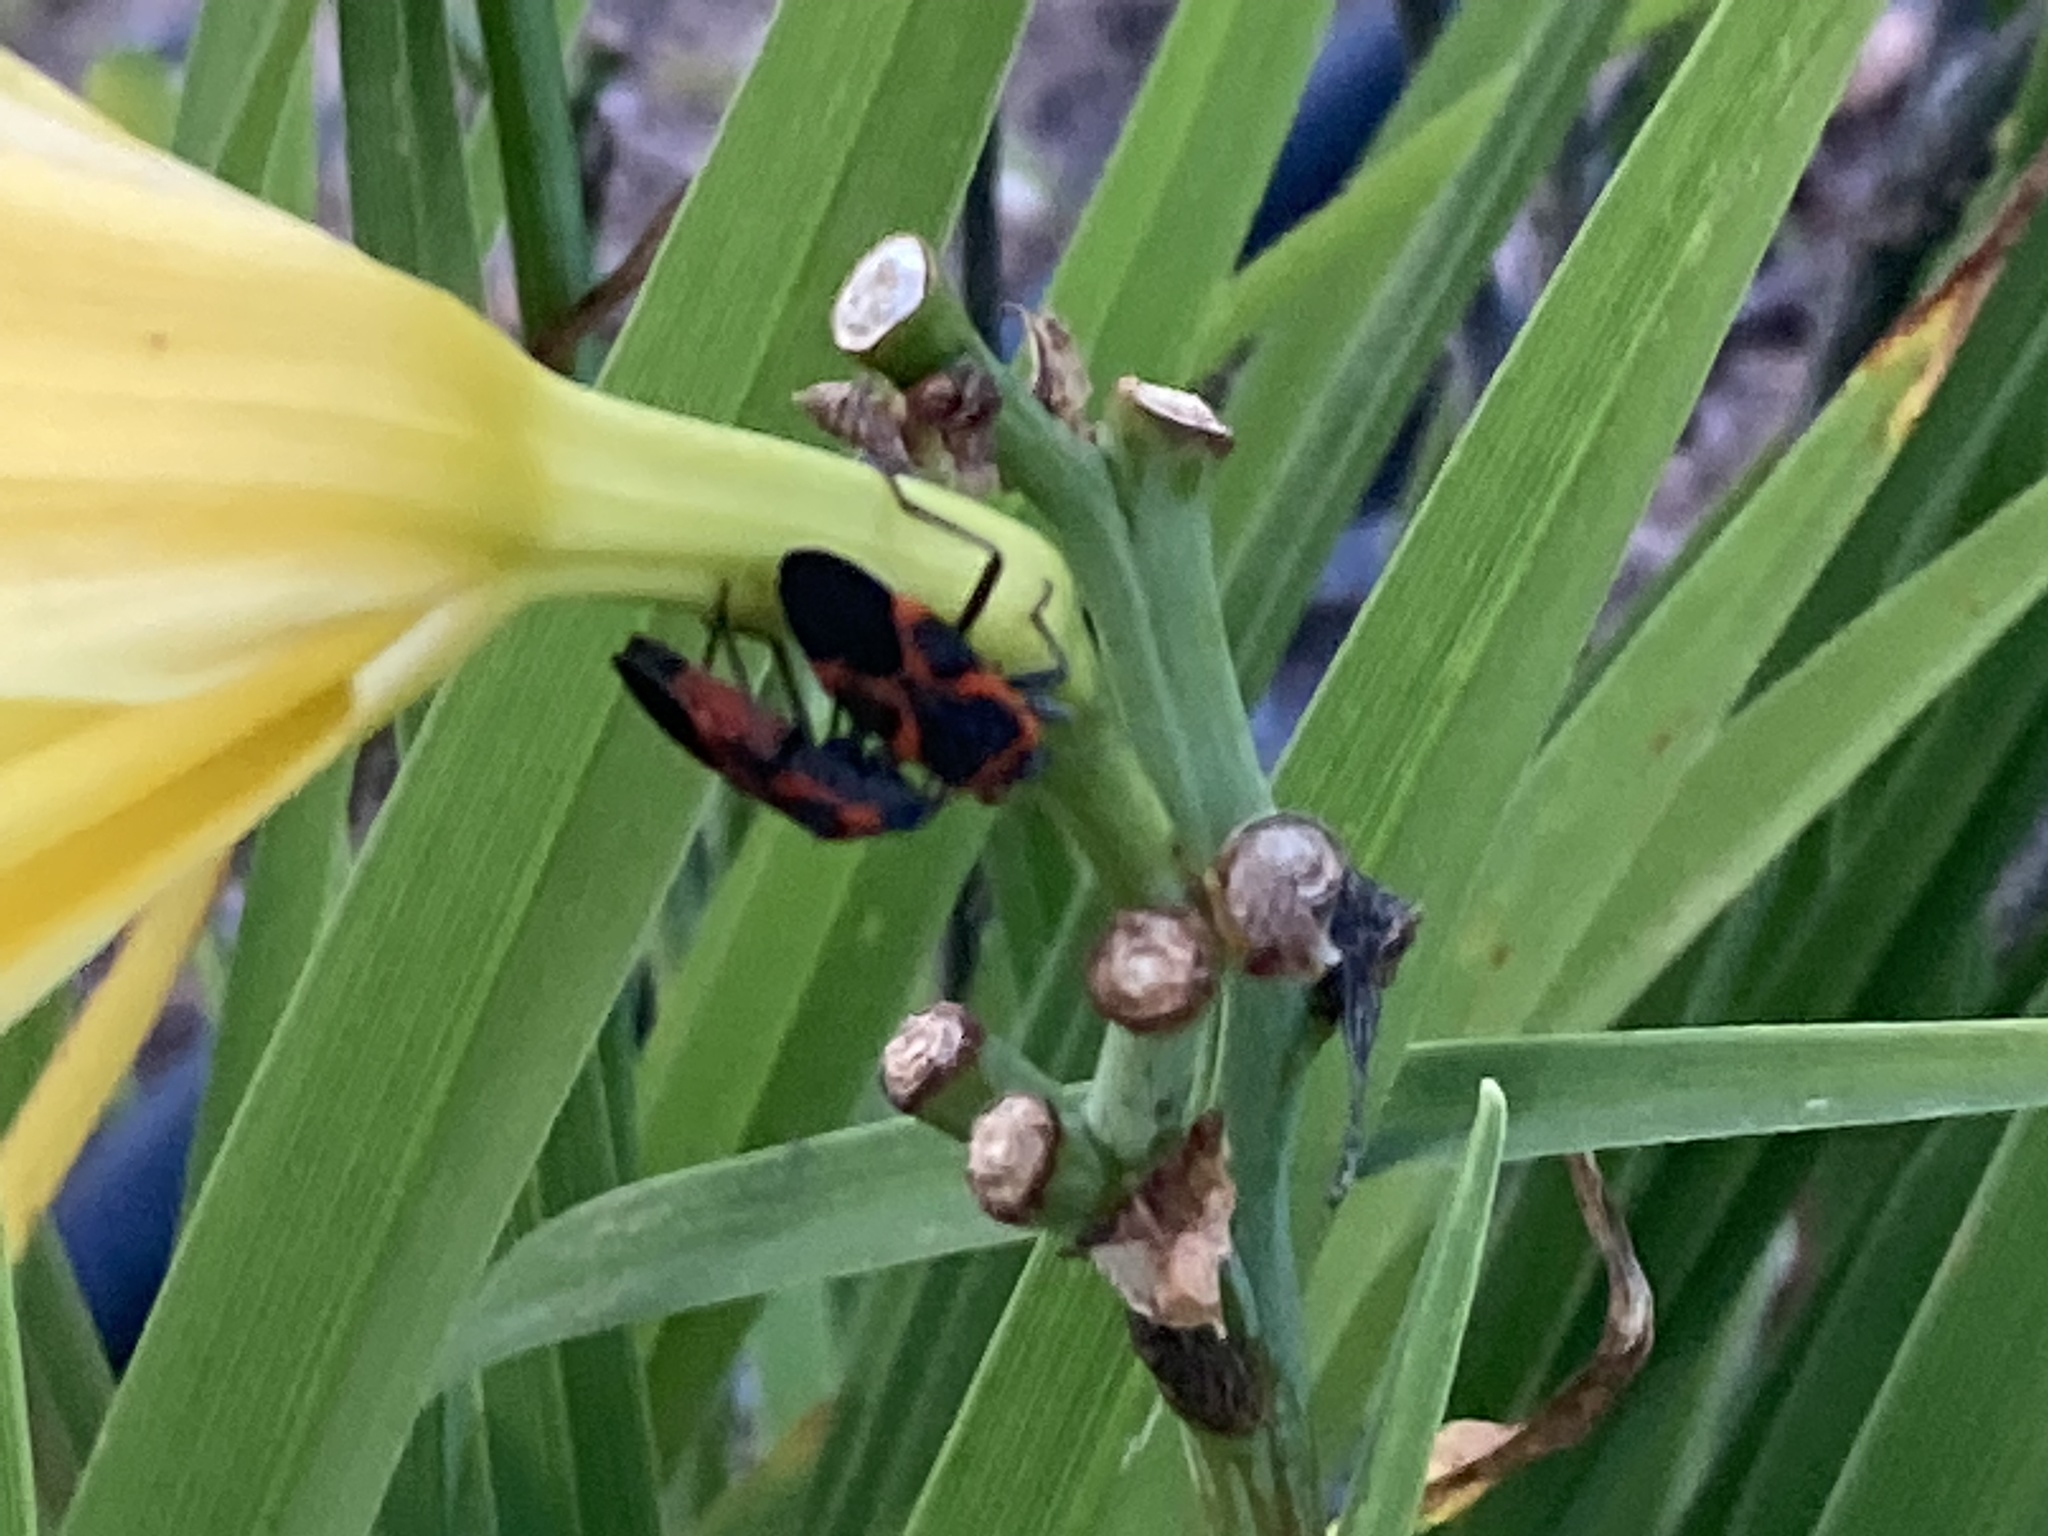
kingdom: Animalia
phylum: Arthropoda
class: Insecta
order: Hemiptera
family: Lygaeidae
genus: Lygaeus
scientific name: Lygaeus kalmii
